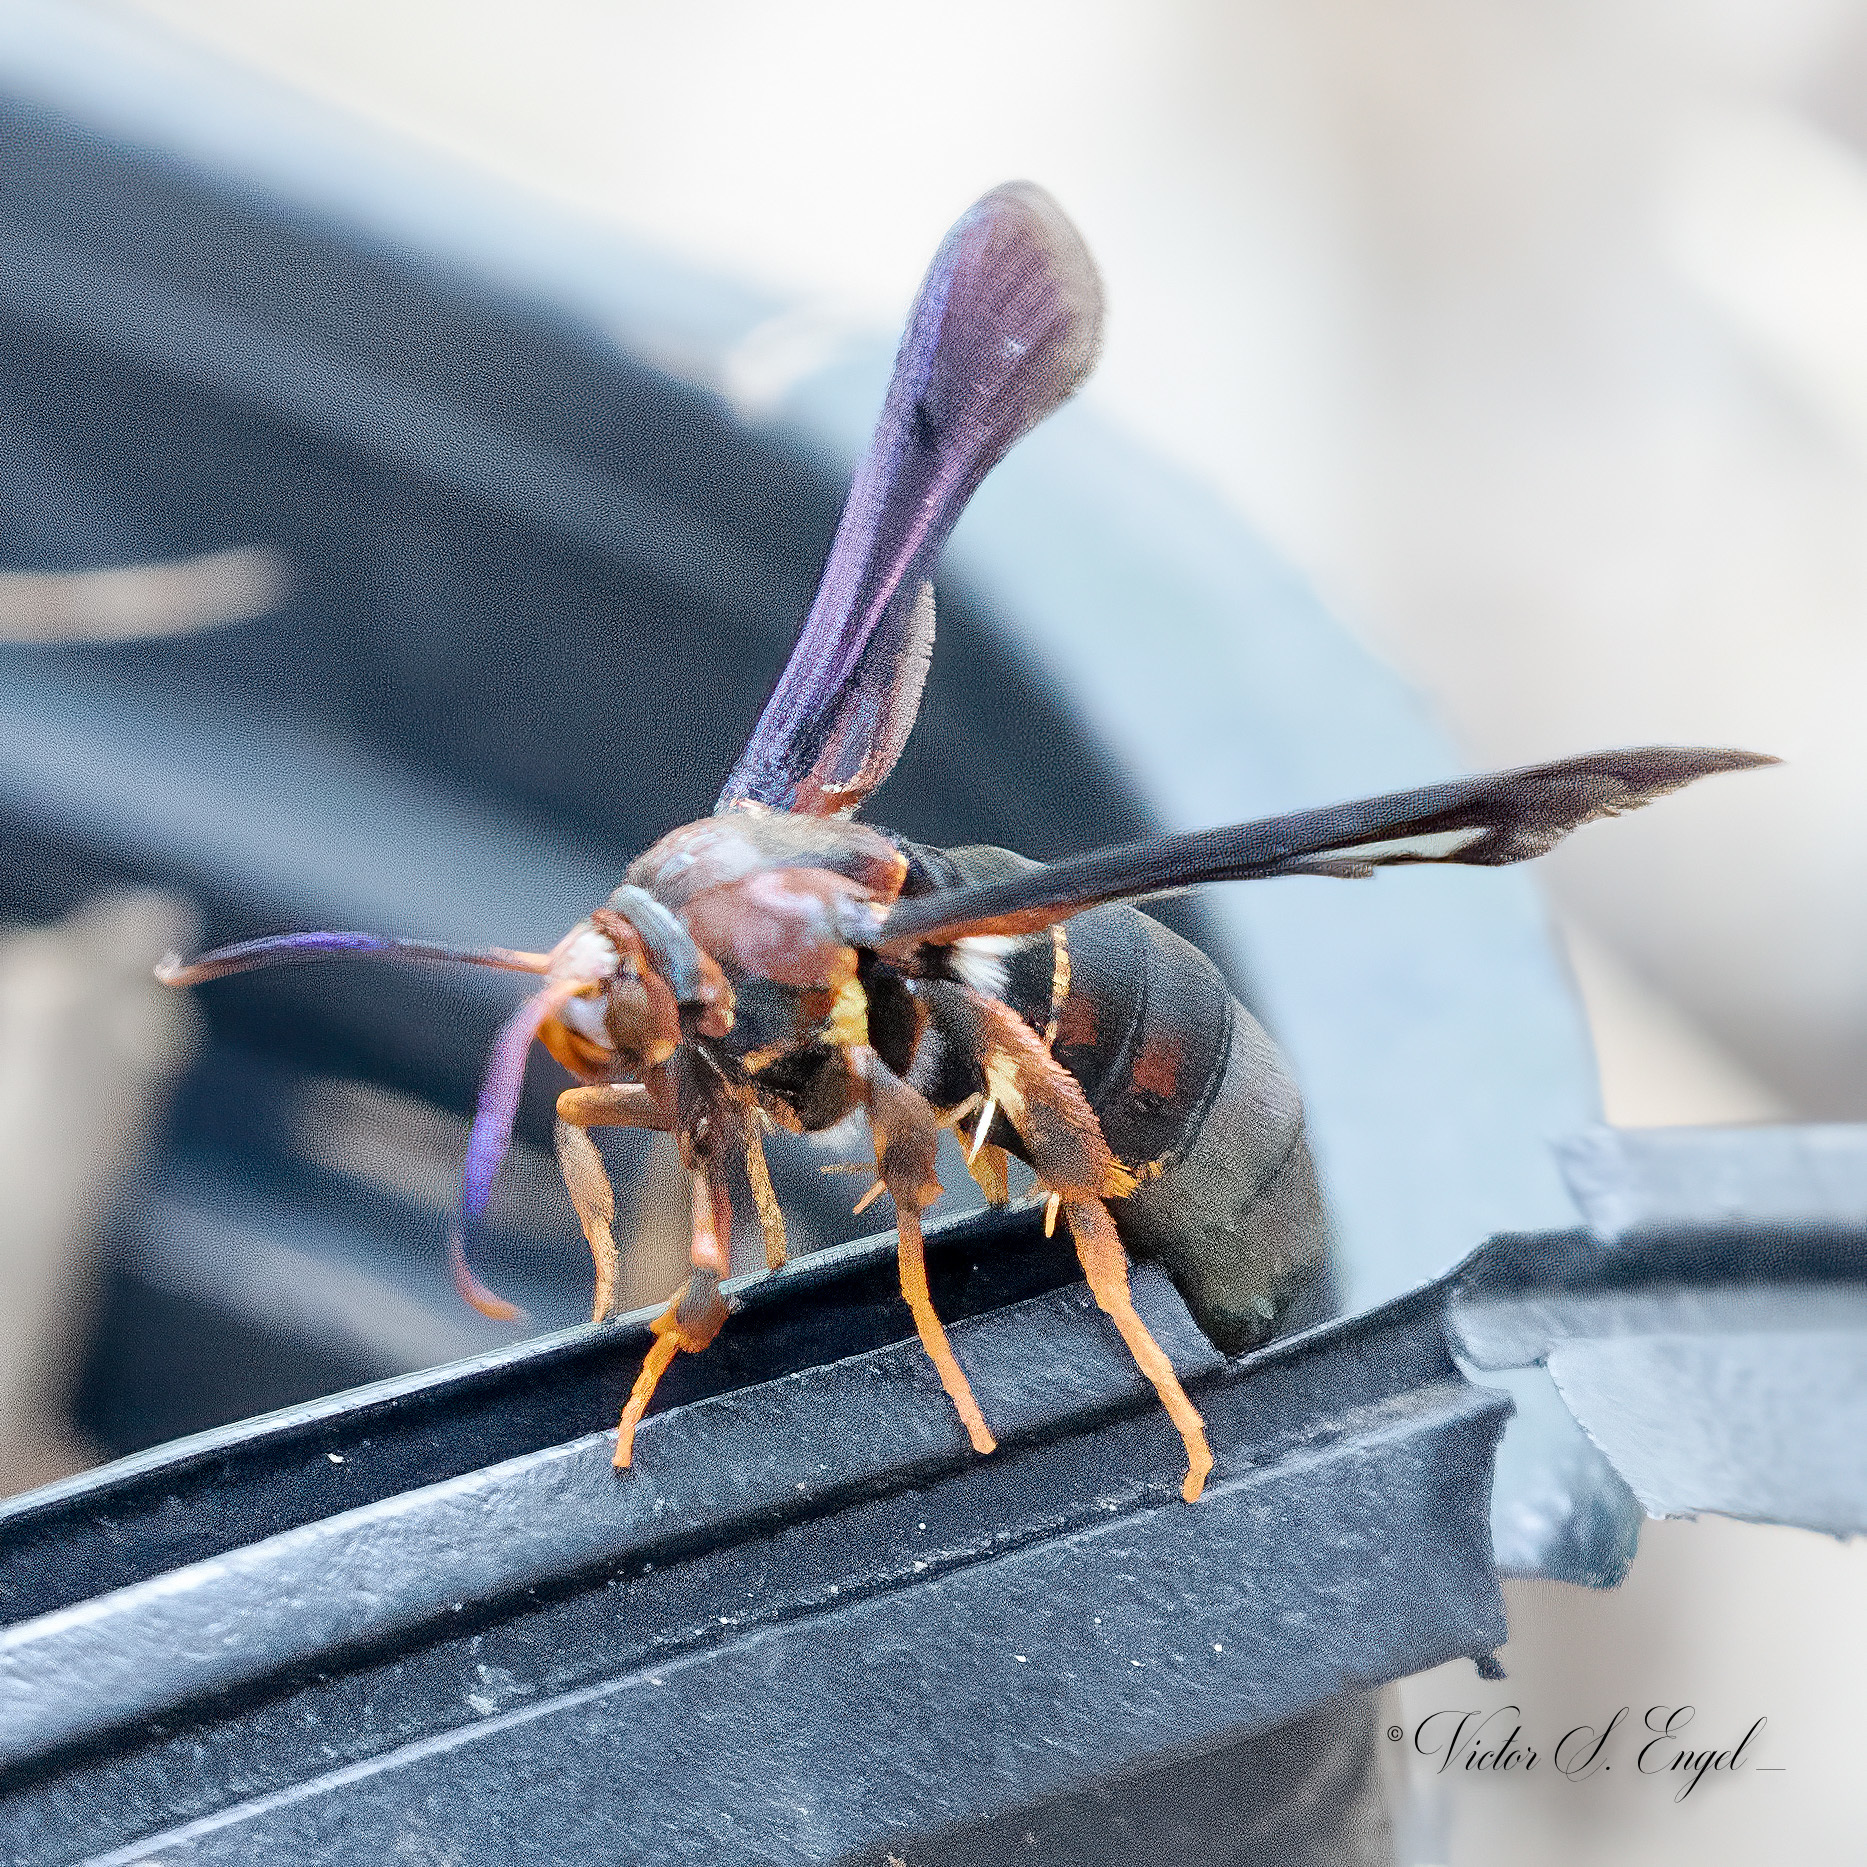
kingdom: Animalia
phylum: Arthropoda
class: Insecta
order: Lepidoptera
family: Sesiidae
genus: Vitacea
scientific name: Vitacea polistiformis
